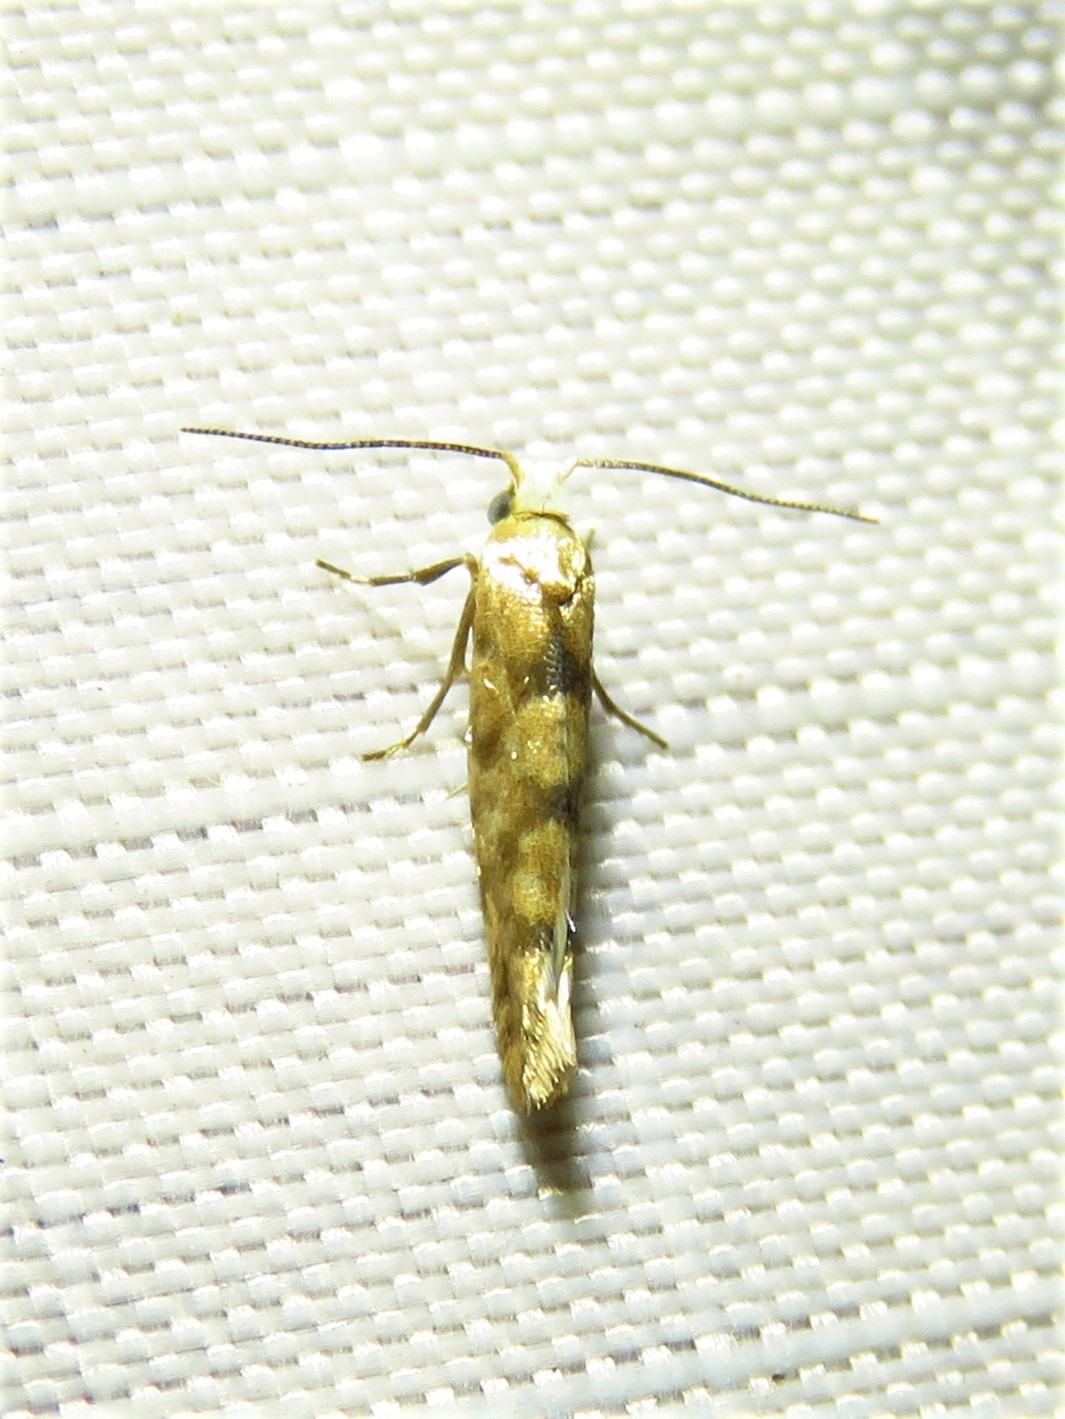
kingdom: Animalia
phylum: Arthropoda
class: Insecta
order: Lepidoptera
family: Argyresthiidae
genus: Argyresthia
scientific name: Argyresthia alternatella
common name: Juniper seed moth
